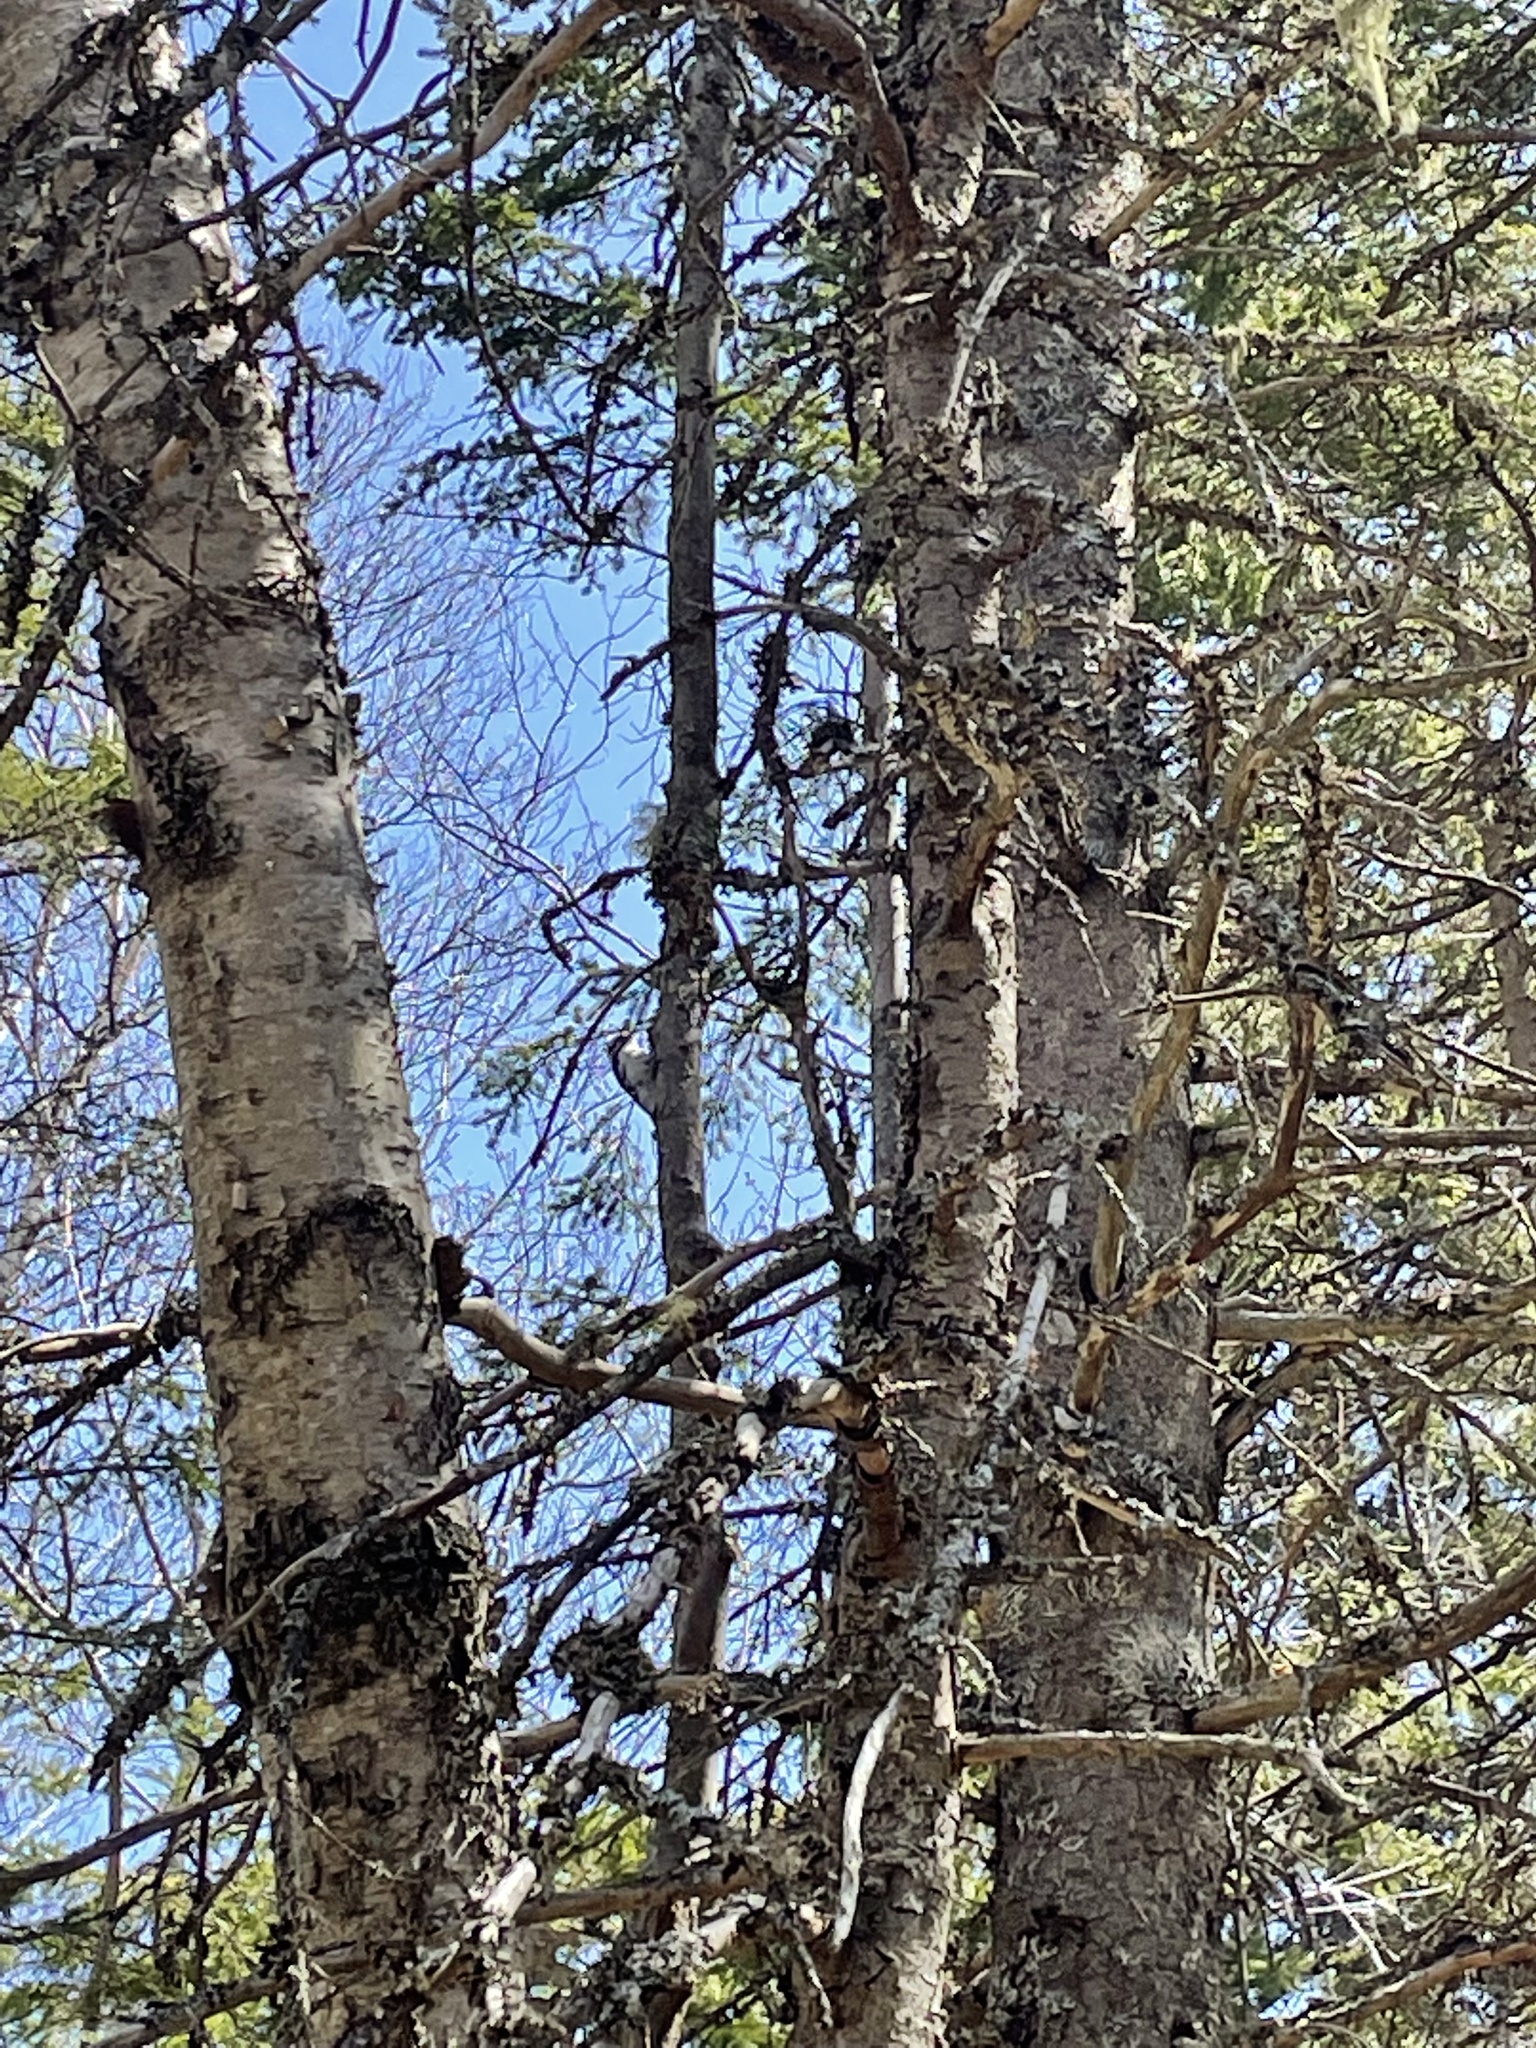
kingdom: Animalia
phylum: Chordata
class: Aves
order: Piciformes
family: Picidae
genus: Dryobates
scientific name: Dryobates pubescens
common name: Downy woodpecker
